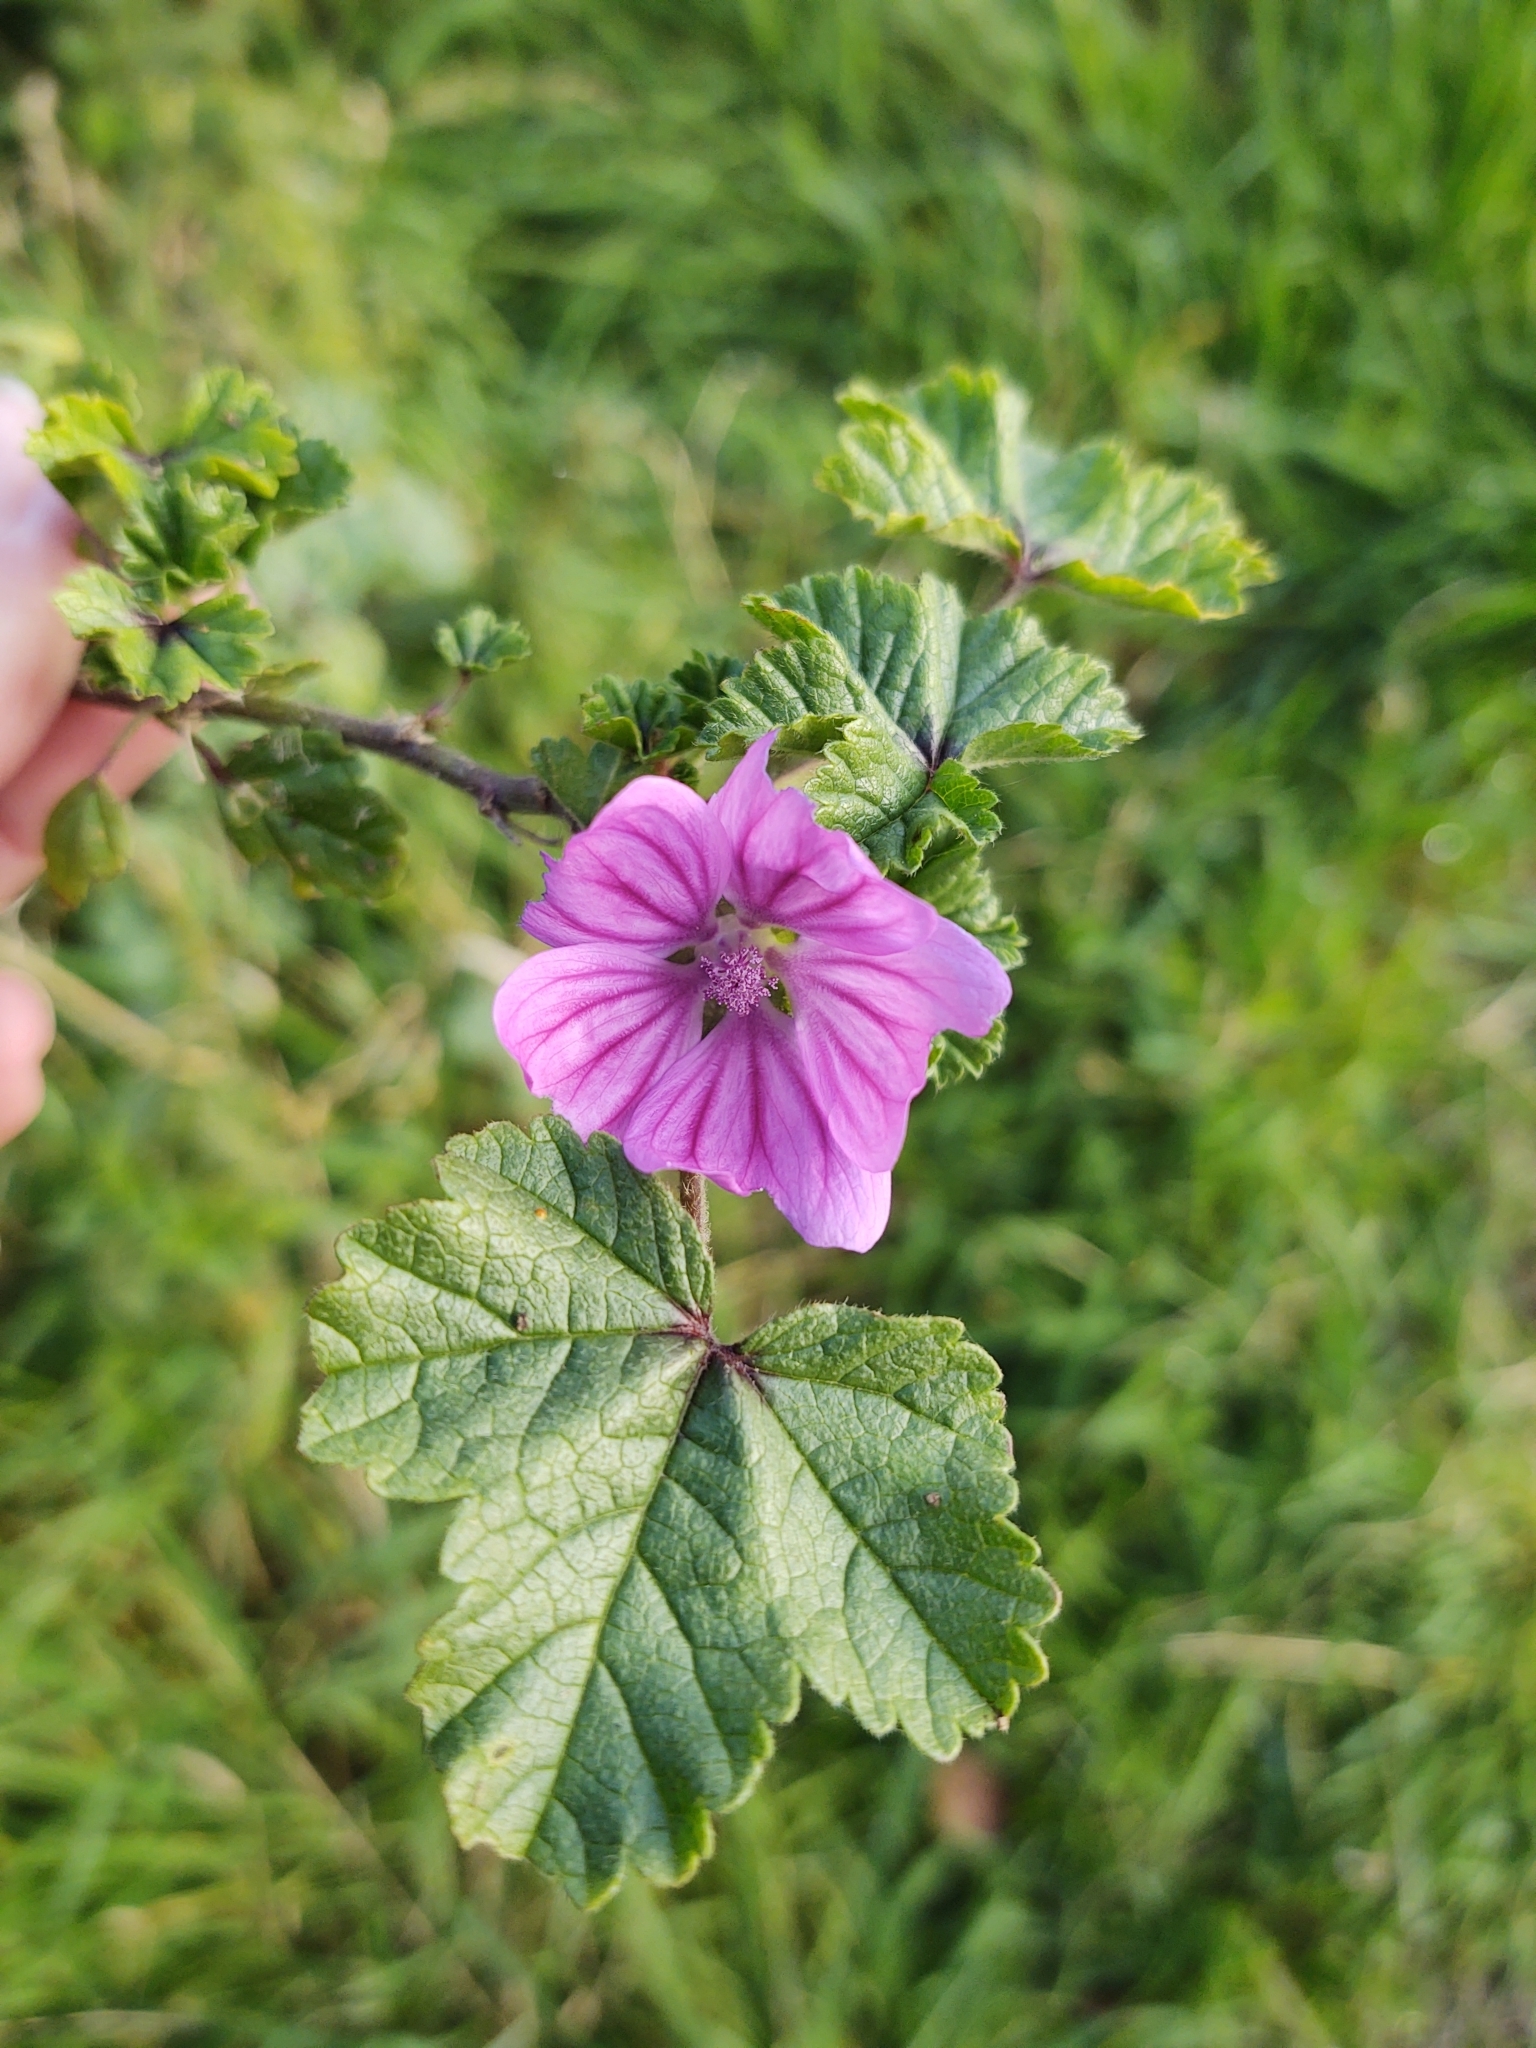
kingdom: Plantae
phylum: Tracheophyta
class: Magnoliopsida
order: Malvales
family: Malvaceae
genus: Malva
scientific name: Malva sylvestris
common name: Common mallow
